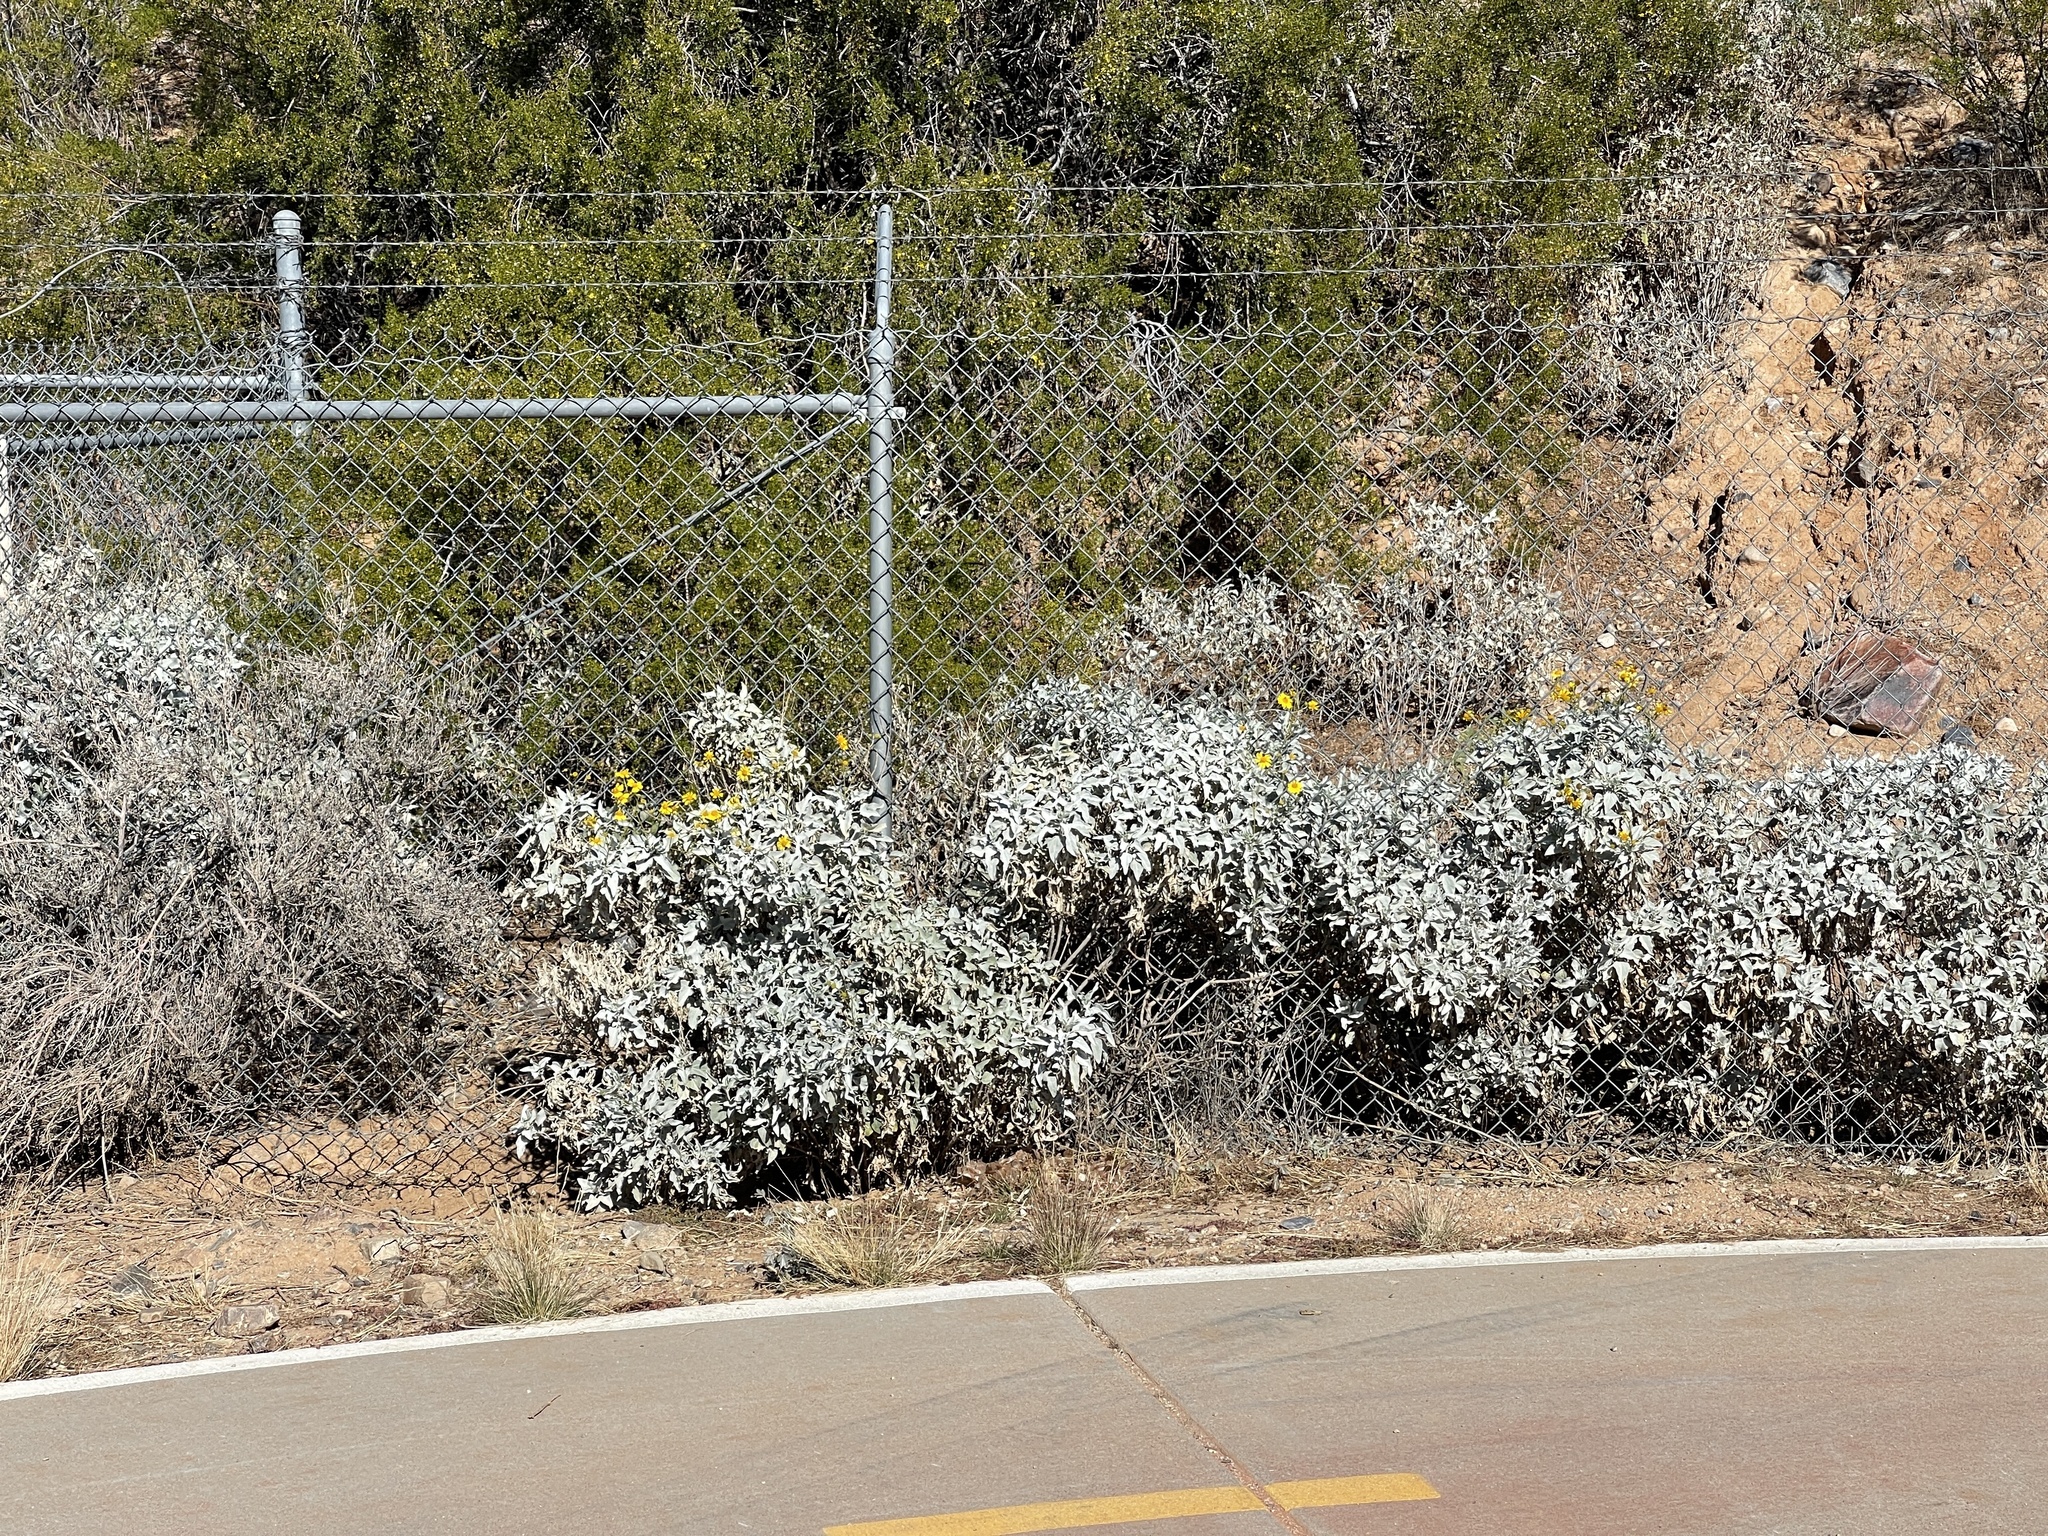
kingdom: Plantae
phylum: Tracheophyta
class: Magnoliopsida
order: Asterales
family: Asteraceae
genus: Encelia
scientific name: Encelia farinosa
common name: Brittlebush
